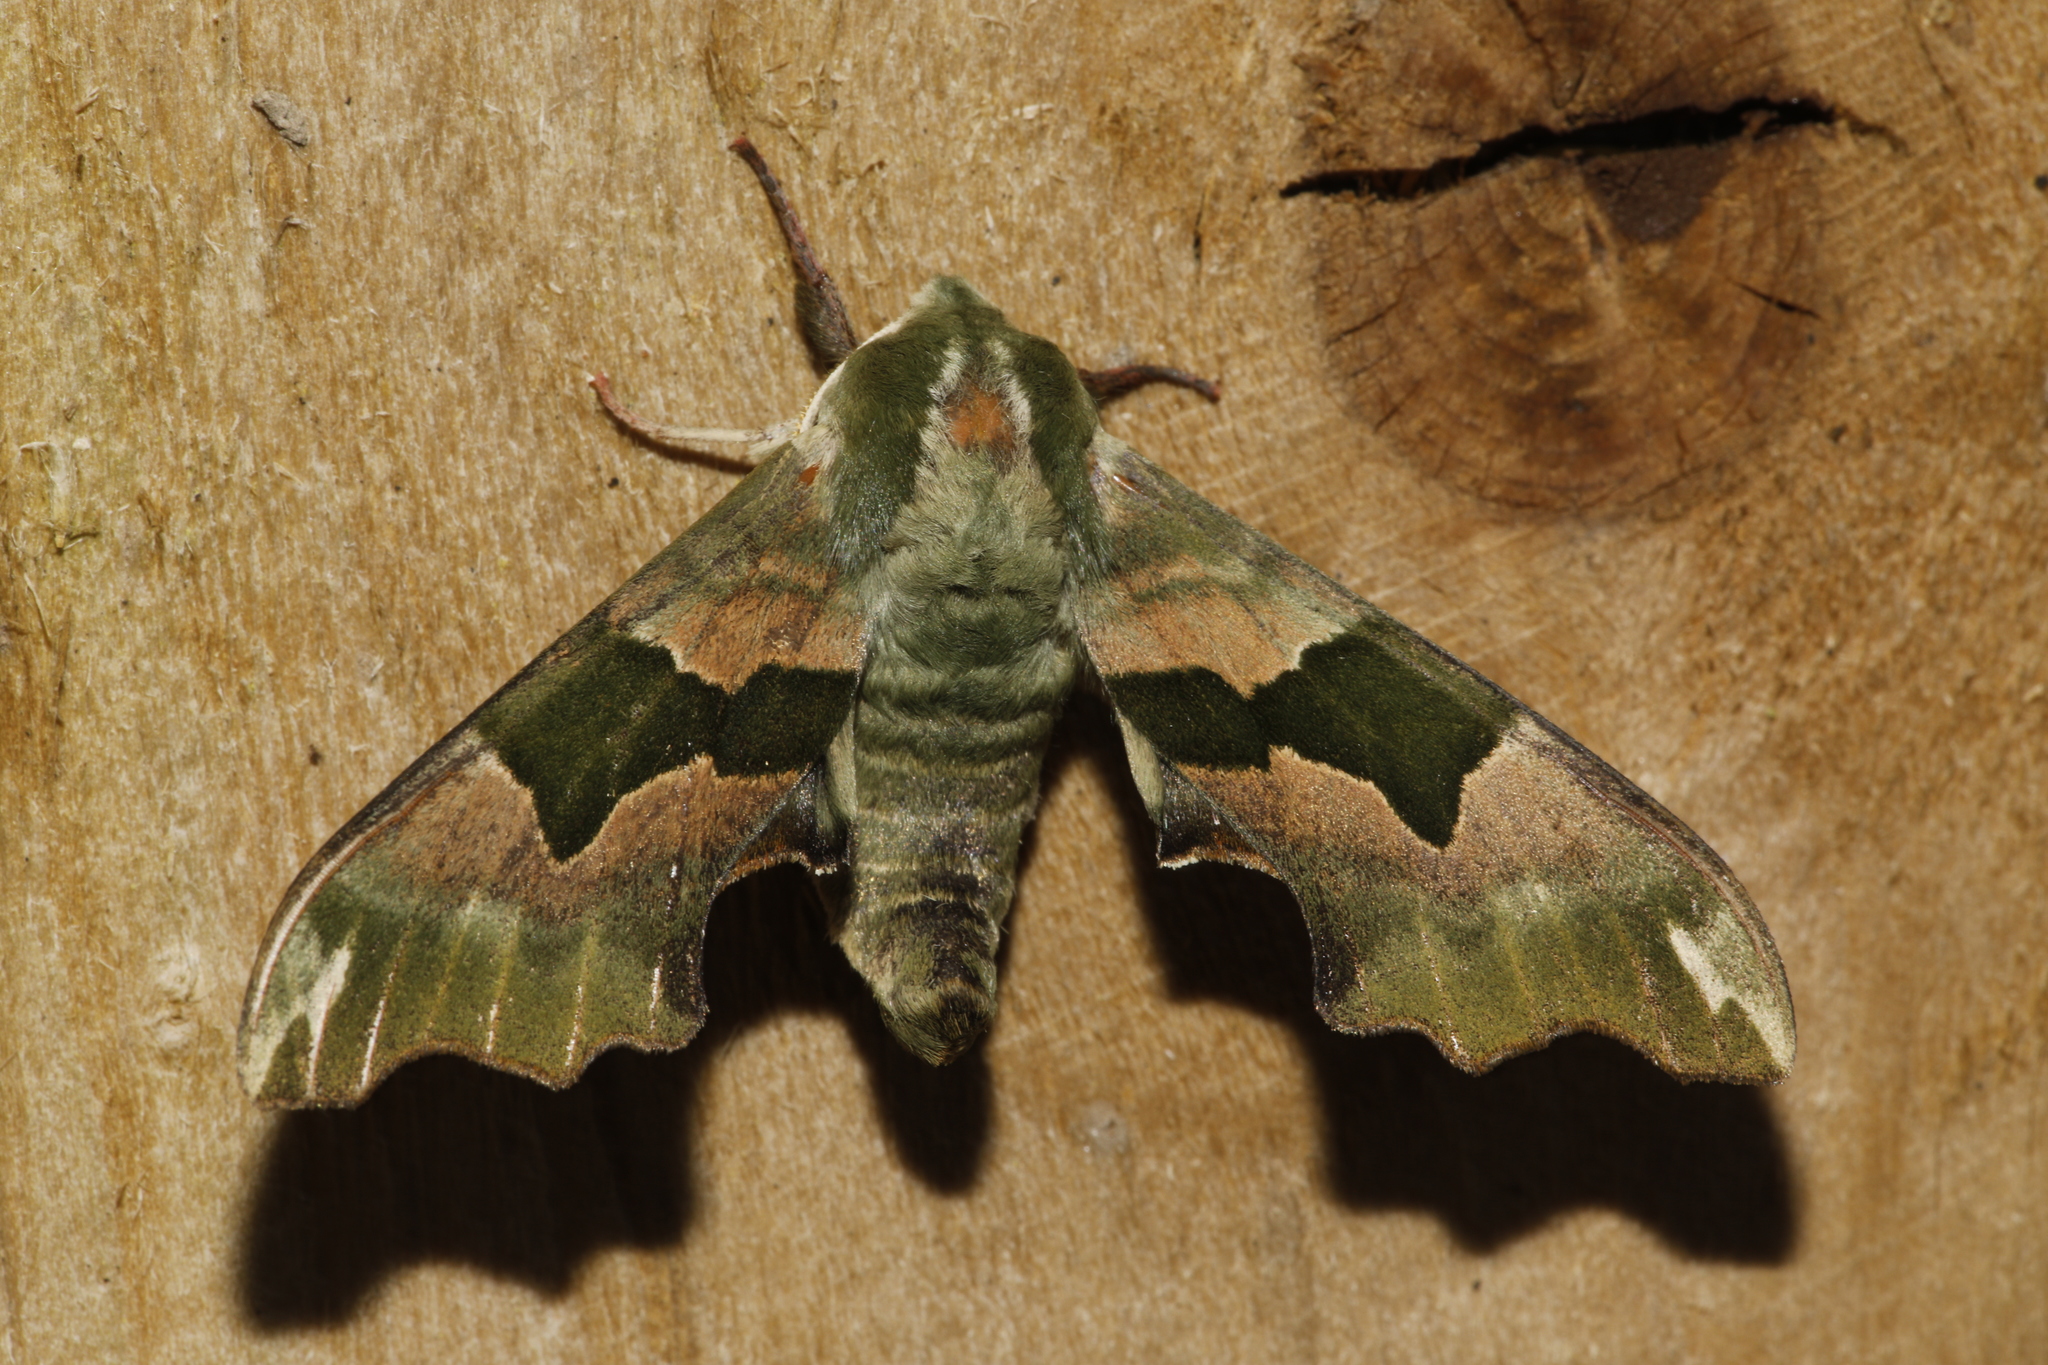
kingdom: Animalia
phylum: Arthropoda
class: Insecta
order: Lepidoptera
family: Sphingidae
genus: Mimas
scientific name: Mimas tiliae
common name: Lime hawk-moth
